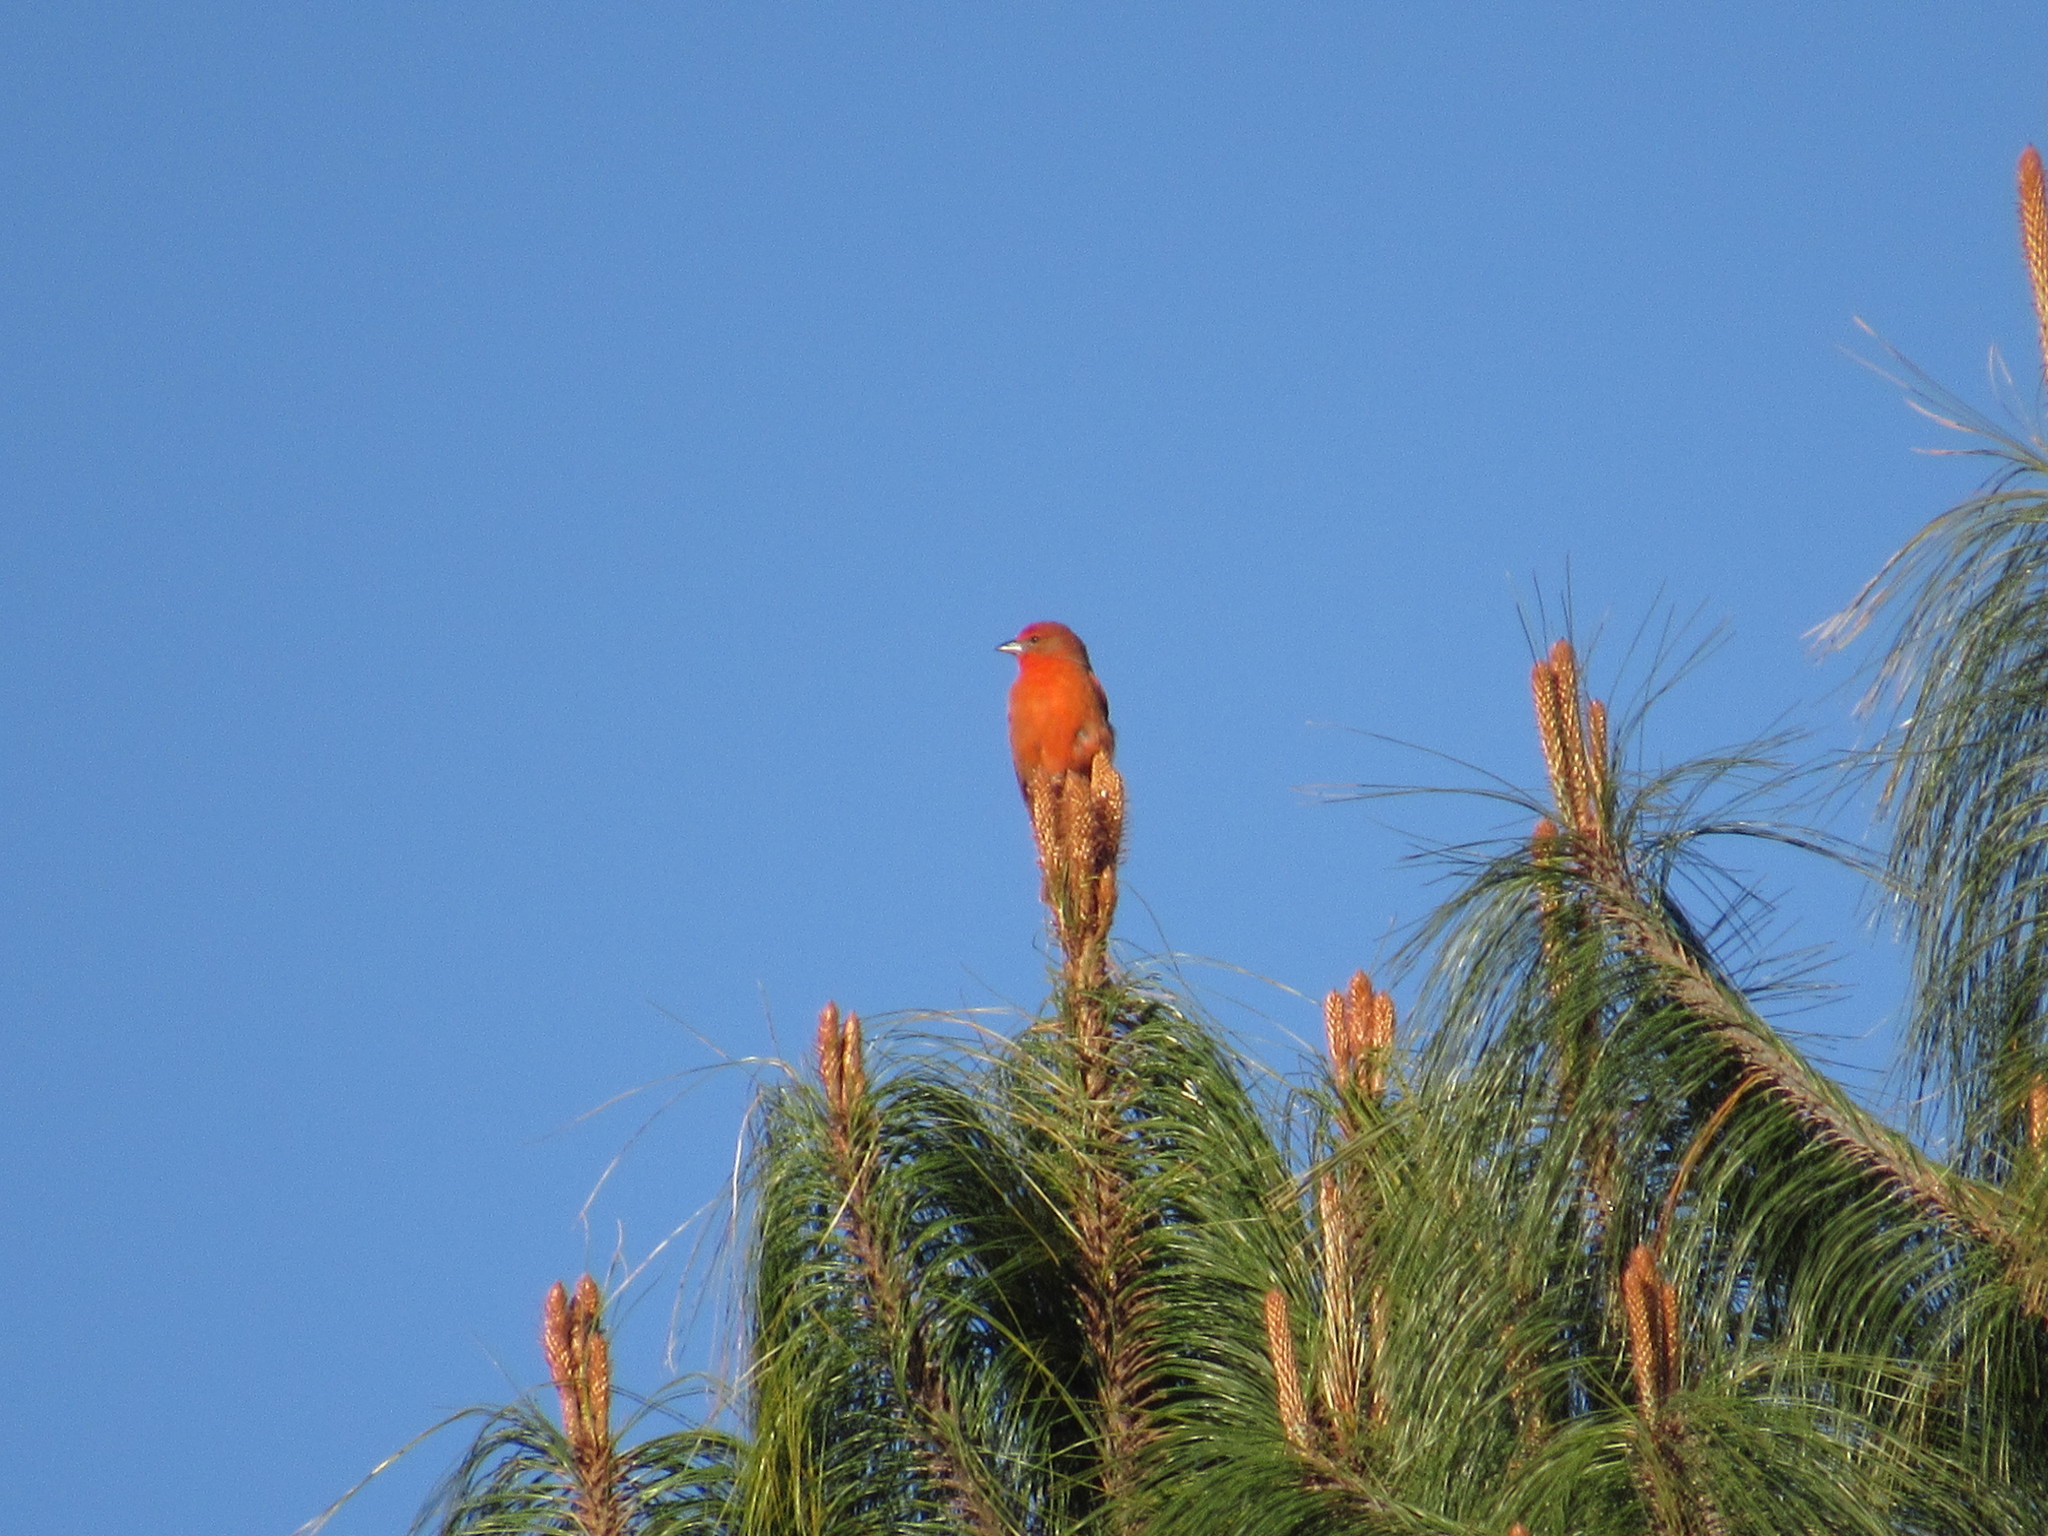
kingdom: Animalia
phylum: Chordata
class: Aves
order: Passeriformes
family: Cardinalidae
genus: Piranga
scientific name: Piranga flava
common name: Red tanager
